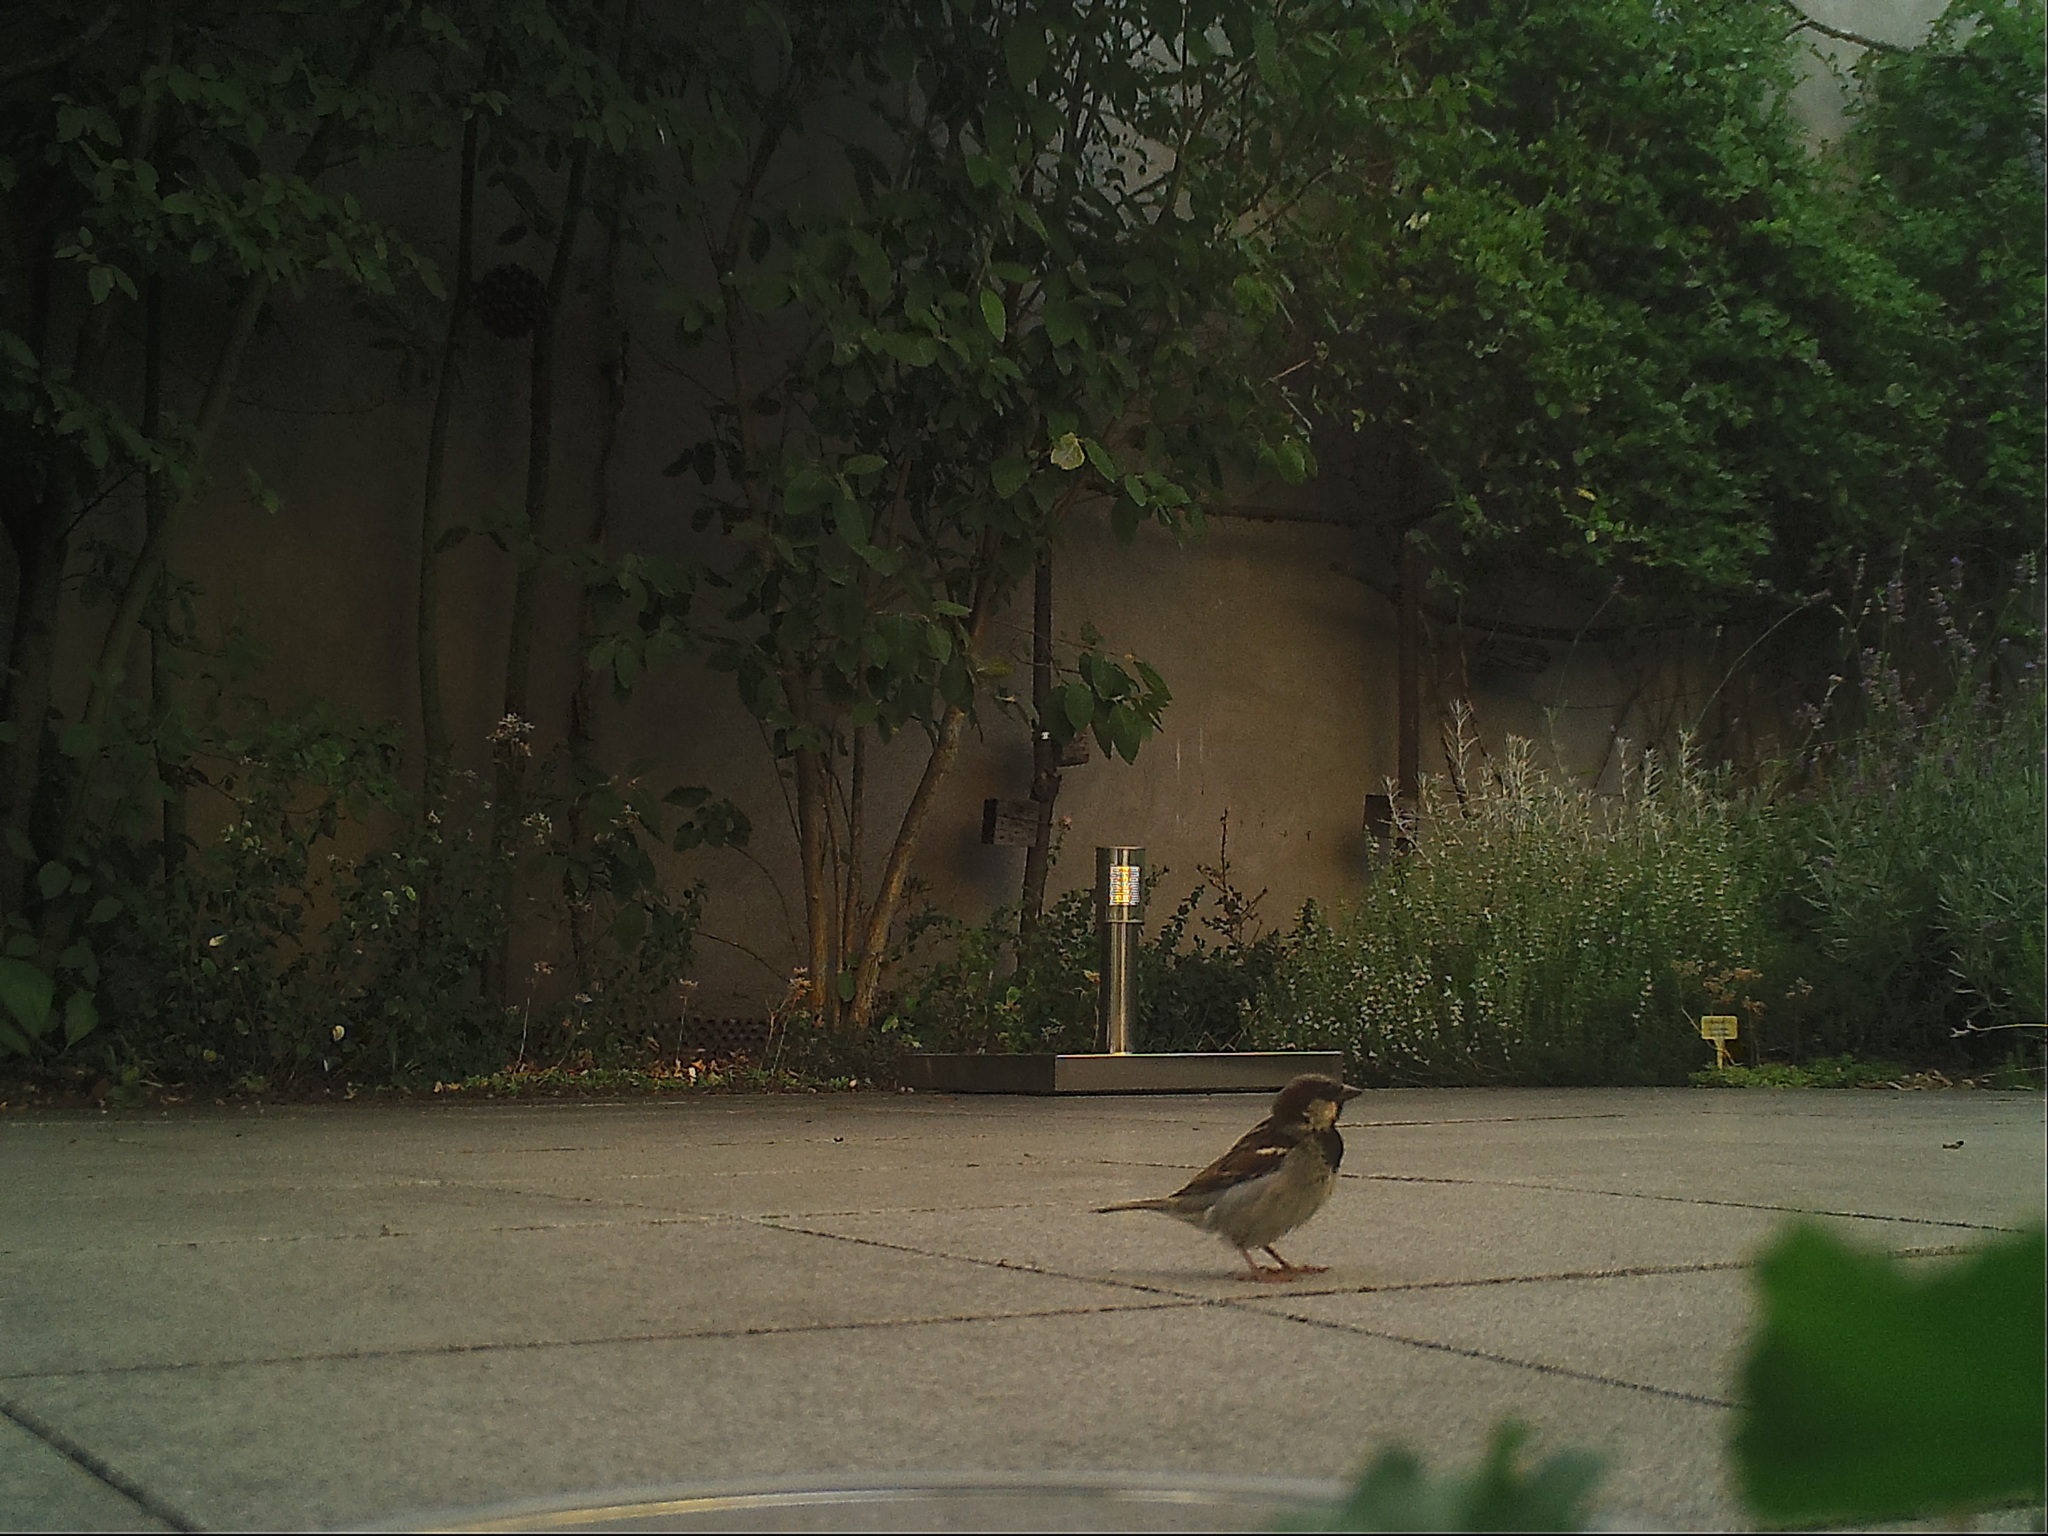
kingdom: Animalia
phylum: Chordata
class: Aves
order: Passeriformes
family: Passeridae
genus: Passer
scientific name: Passer domesticus
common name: House sparrow
